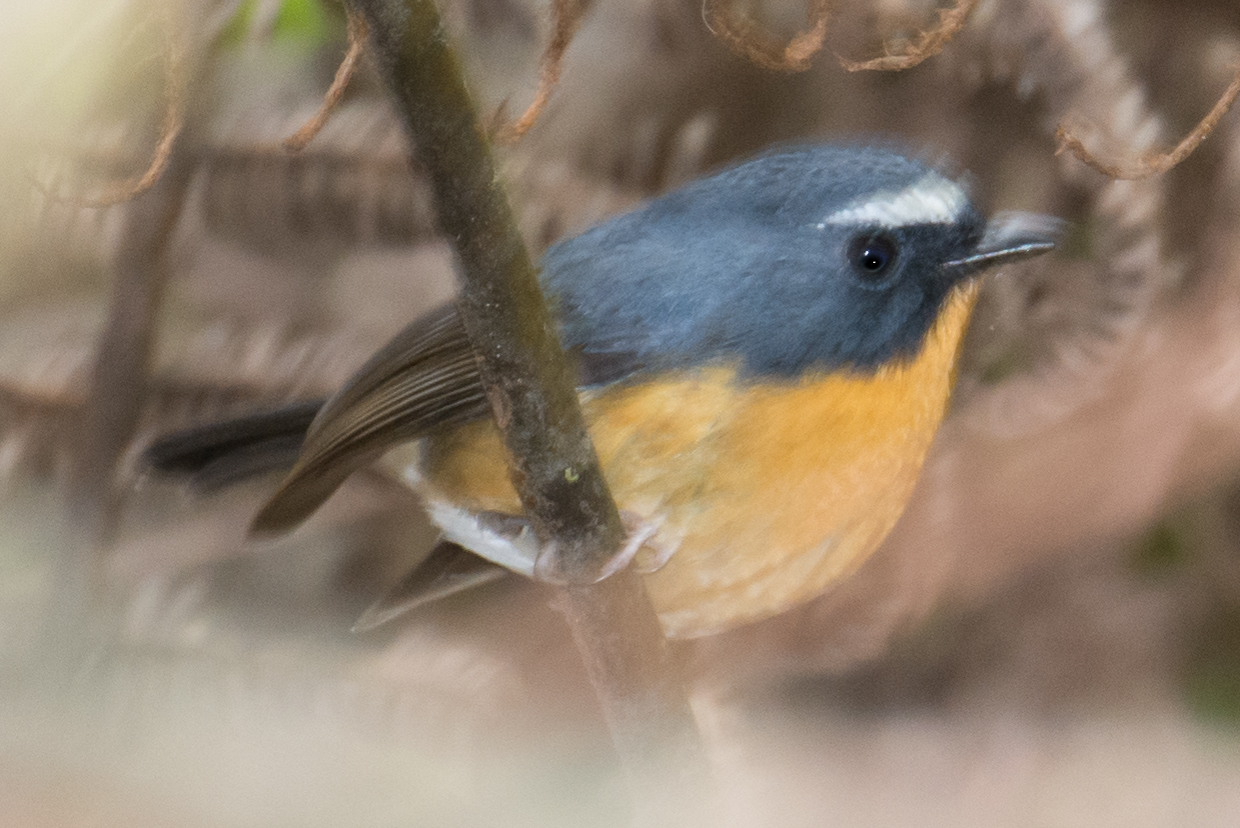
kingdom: Animalia
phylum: Chordata
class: Aves
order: Passeriformes
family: Muscicapidae
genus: Ficedula
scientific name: Ficedula hyperythra
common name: Snowy-browed flycatcher
